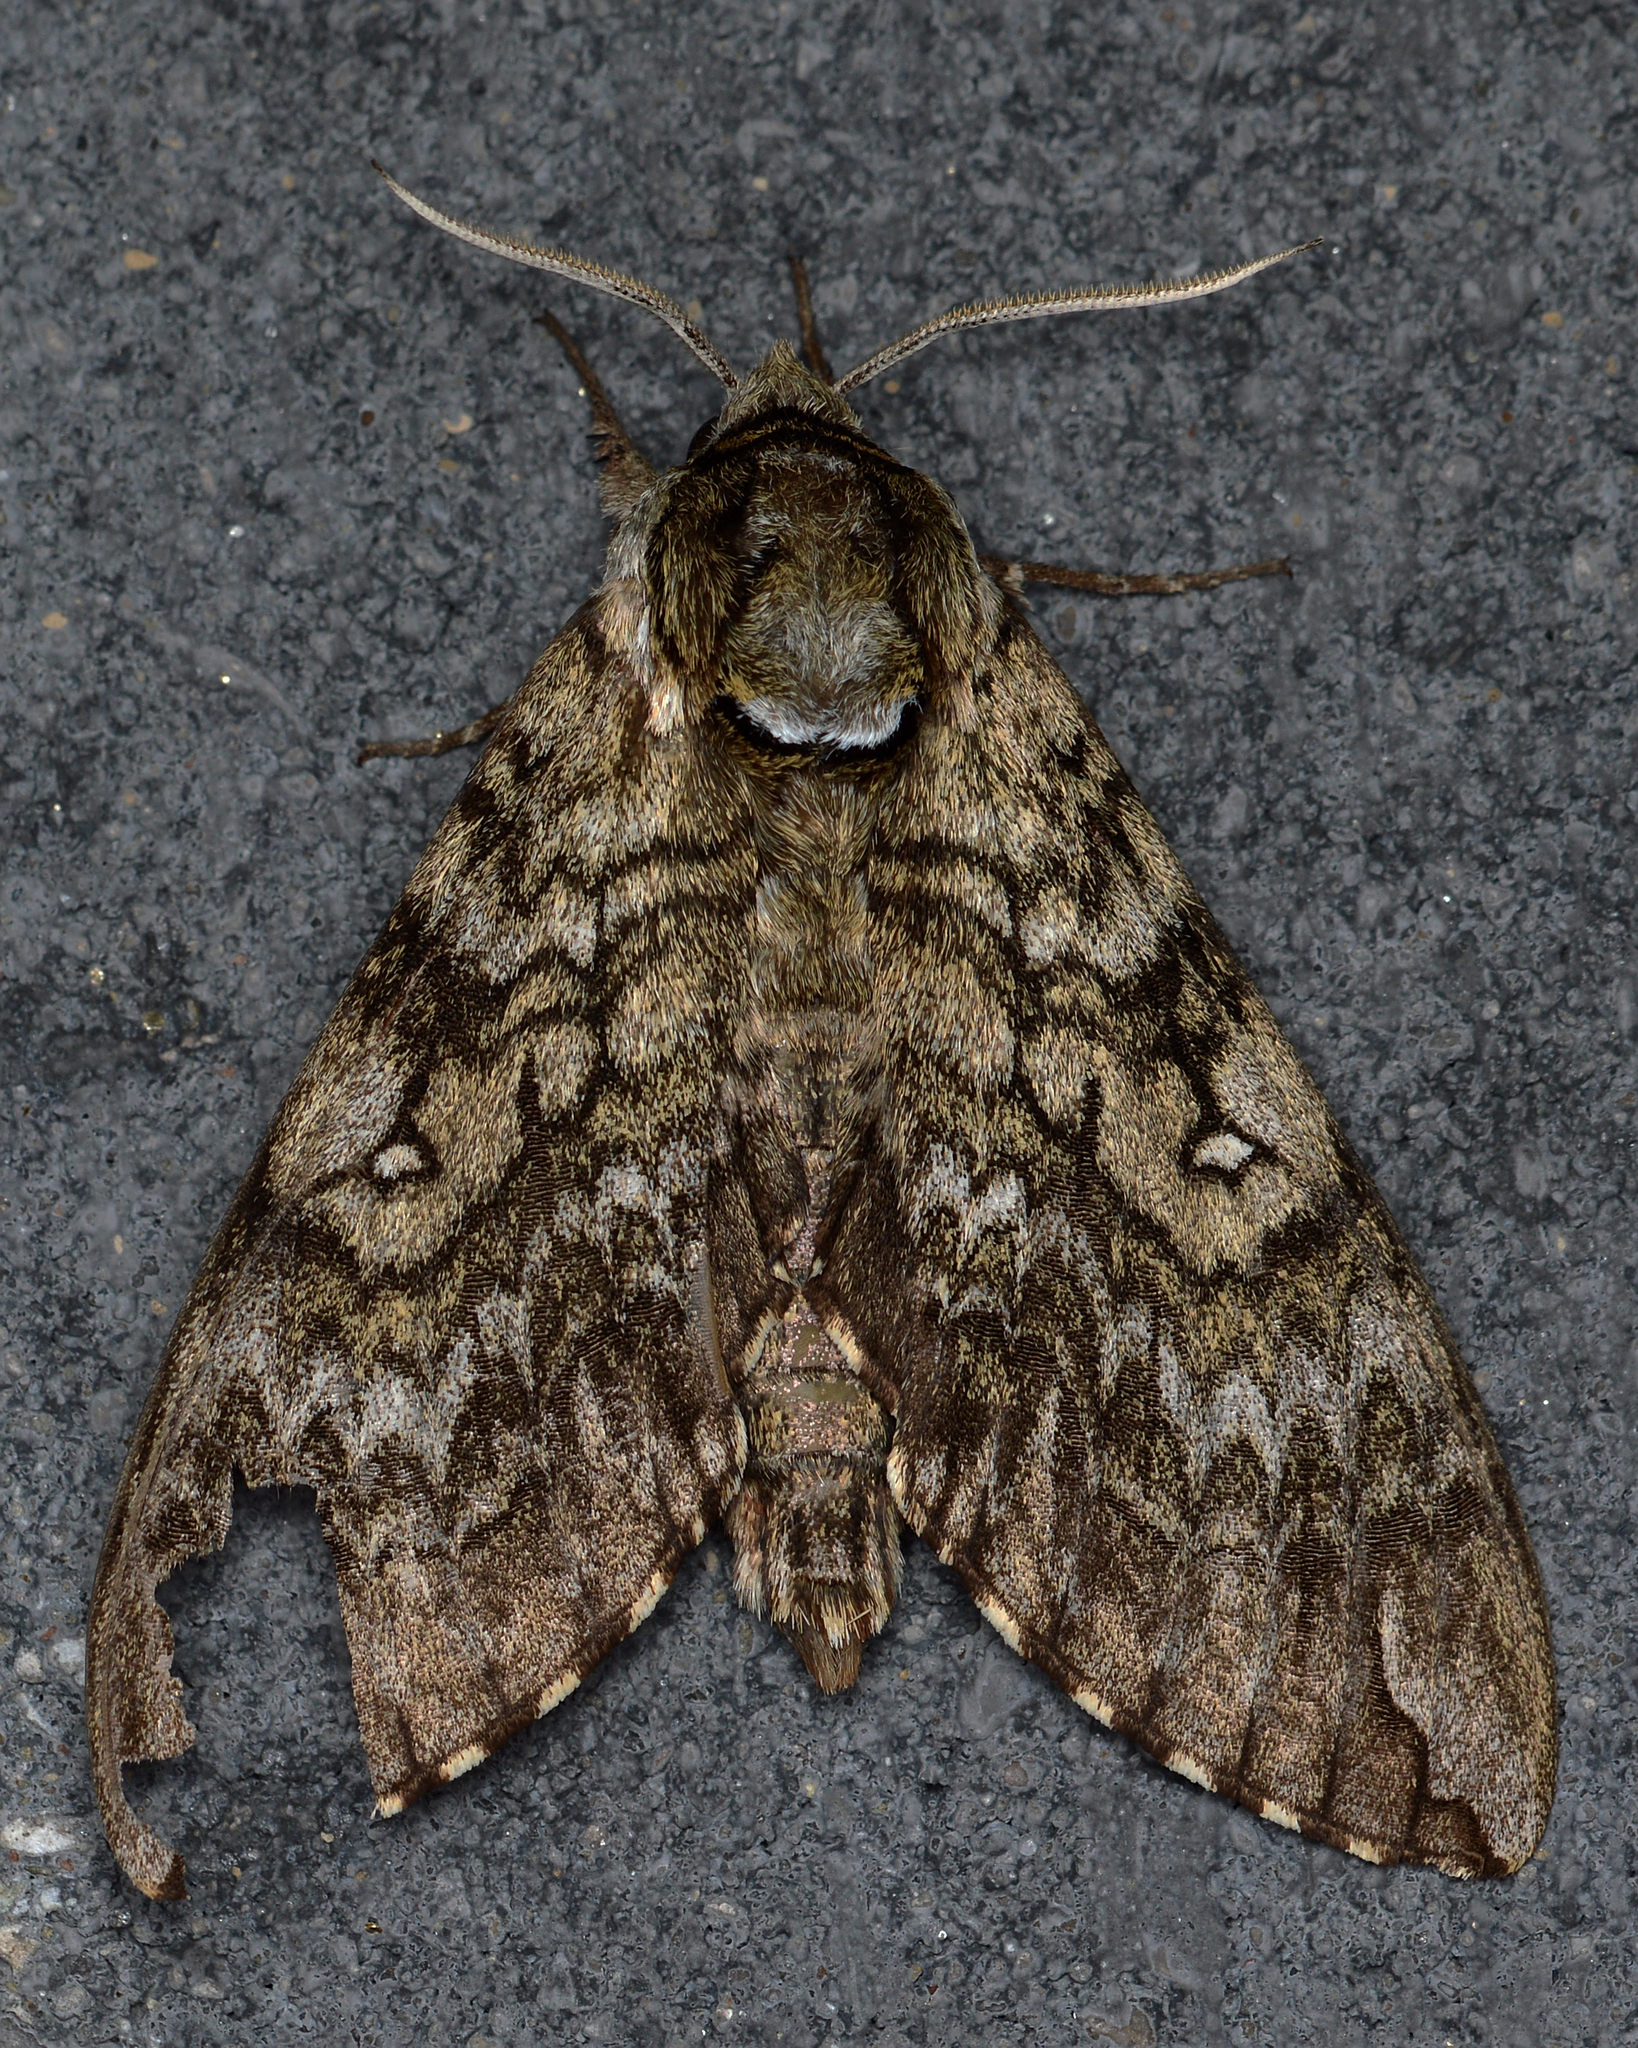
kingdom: Animalia
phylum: Arthropoda
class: Insecta
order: Lepidoptera
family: Sphingidae
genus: Ceratomia
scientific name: Ceratomia undulosa
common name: Waved sphinx
